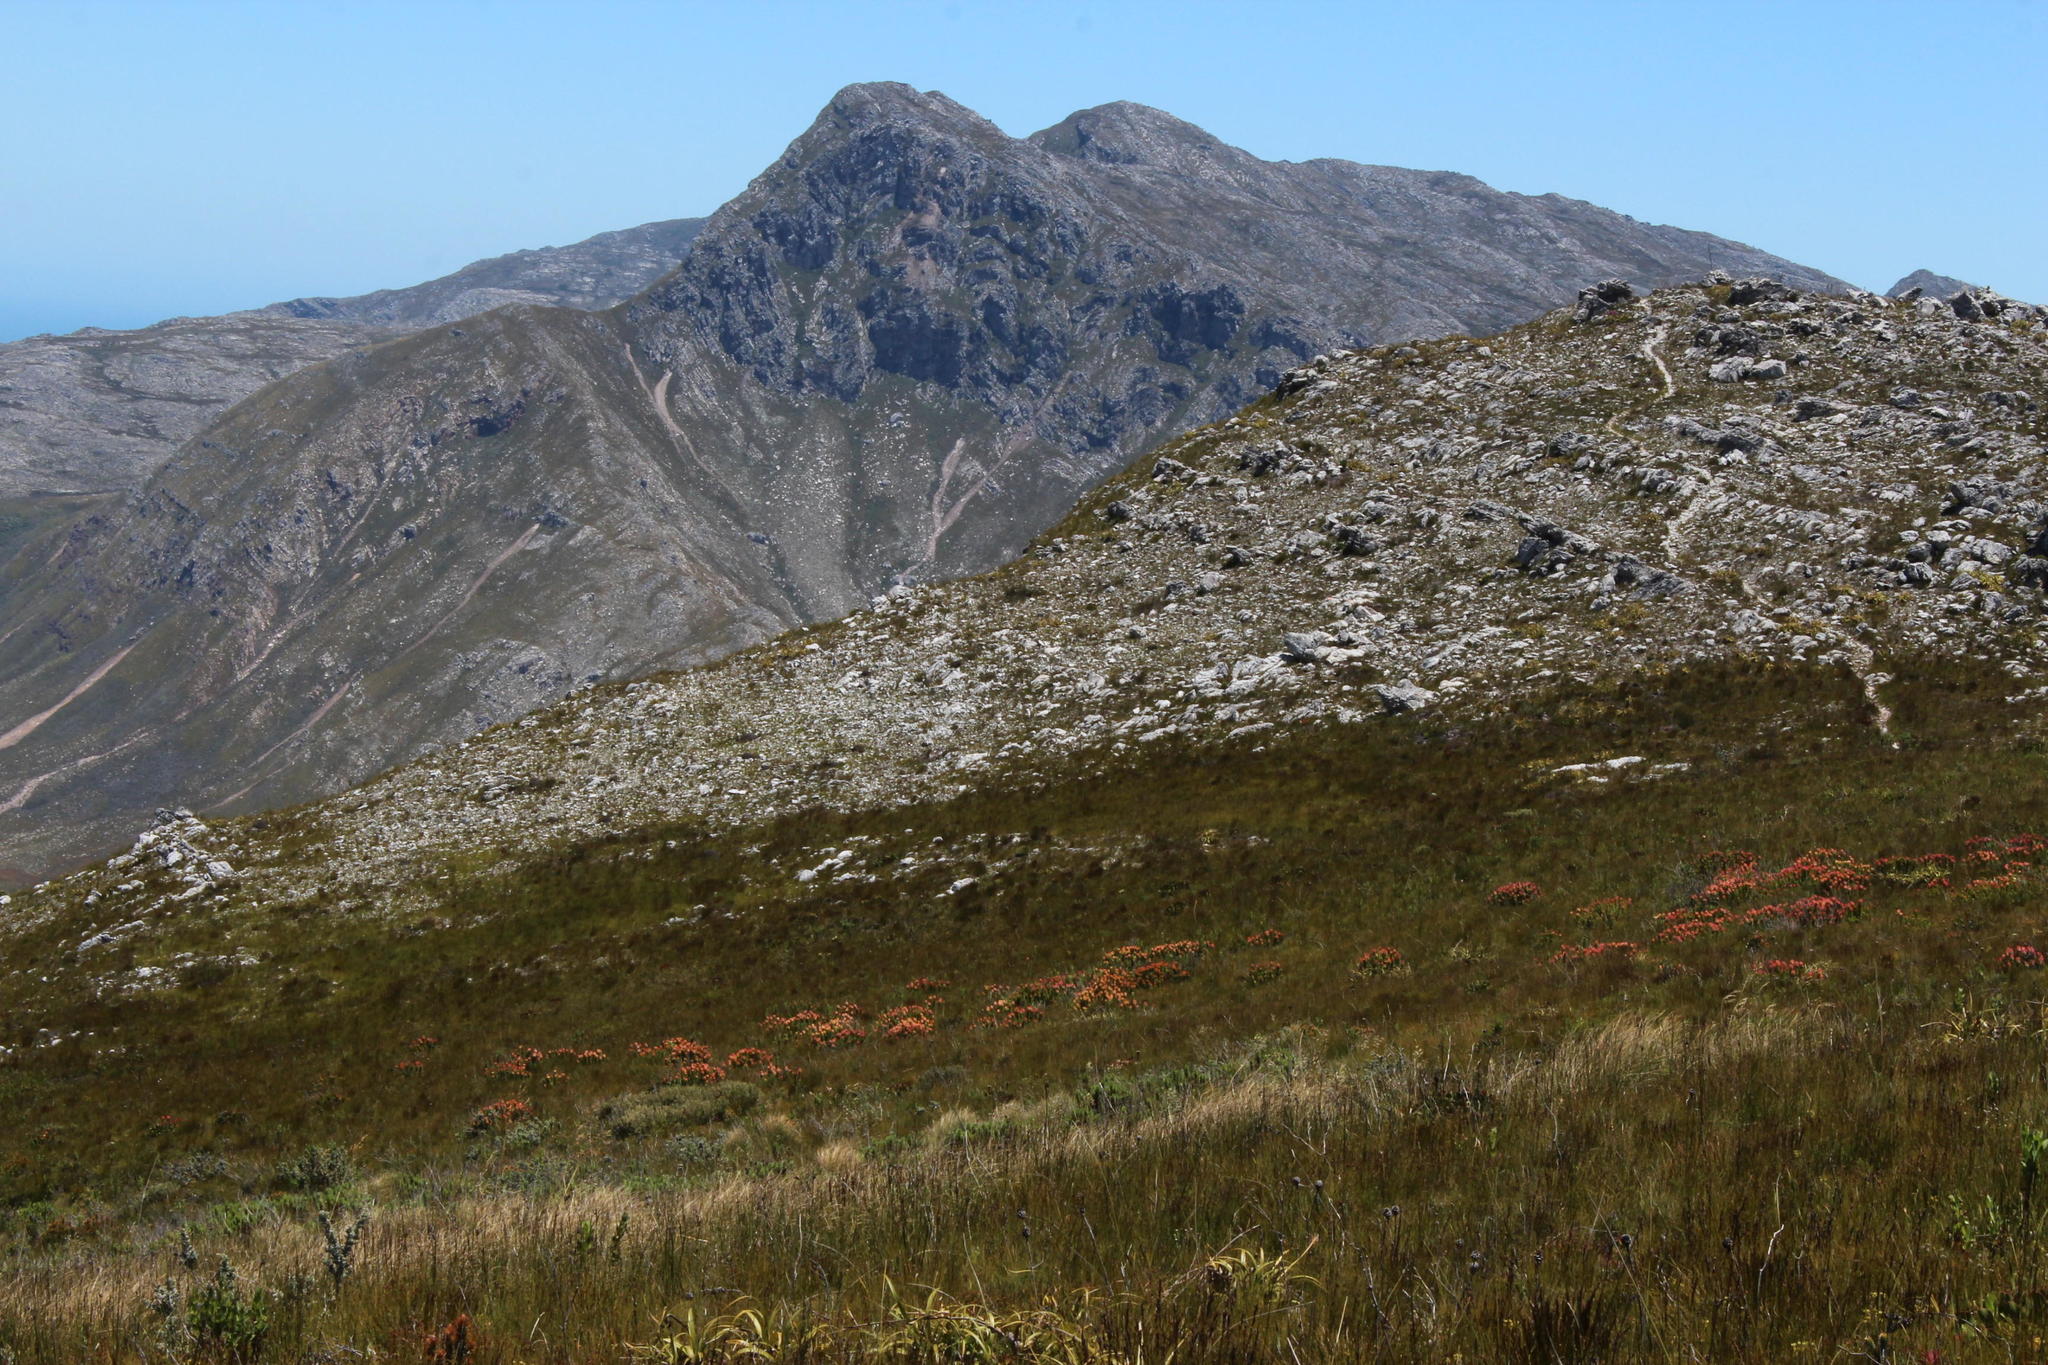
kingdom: Plantae
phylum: Tracheophyta
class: Magnoliopsida
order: Proteales
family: Proteaceae
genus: Mimetes
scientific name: Mimetes cucullatus
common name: Common pagoda
